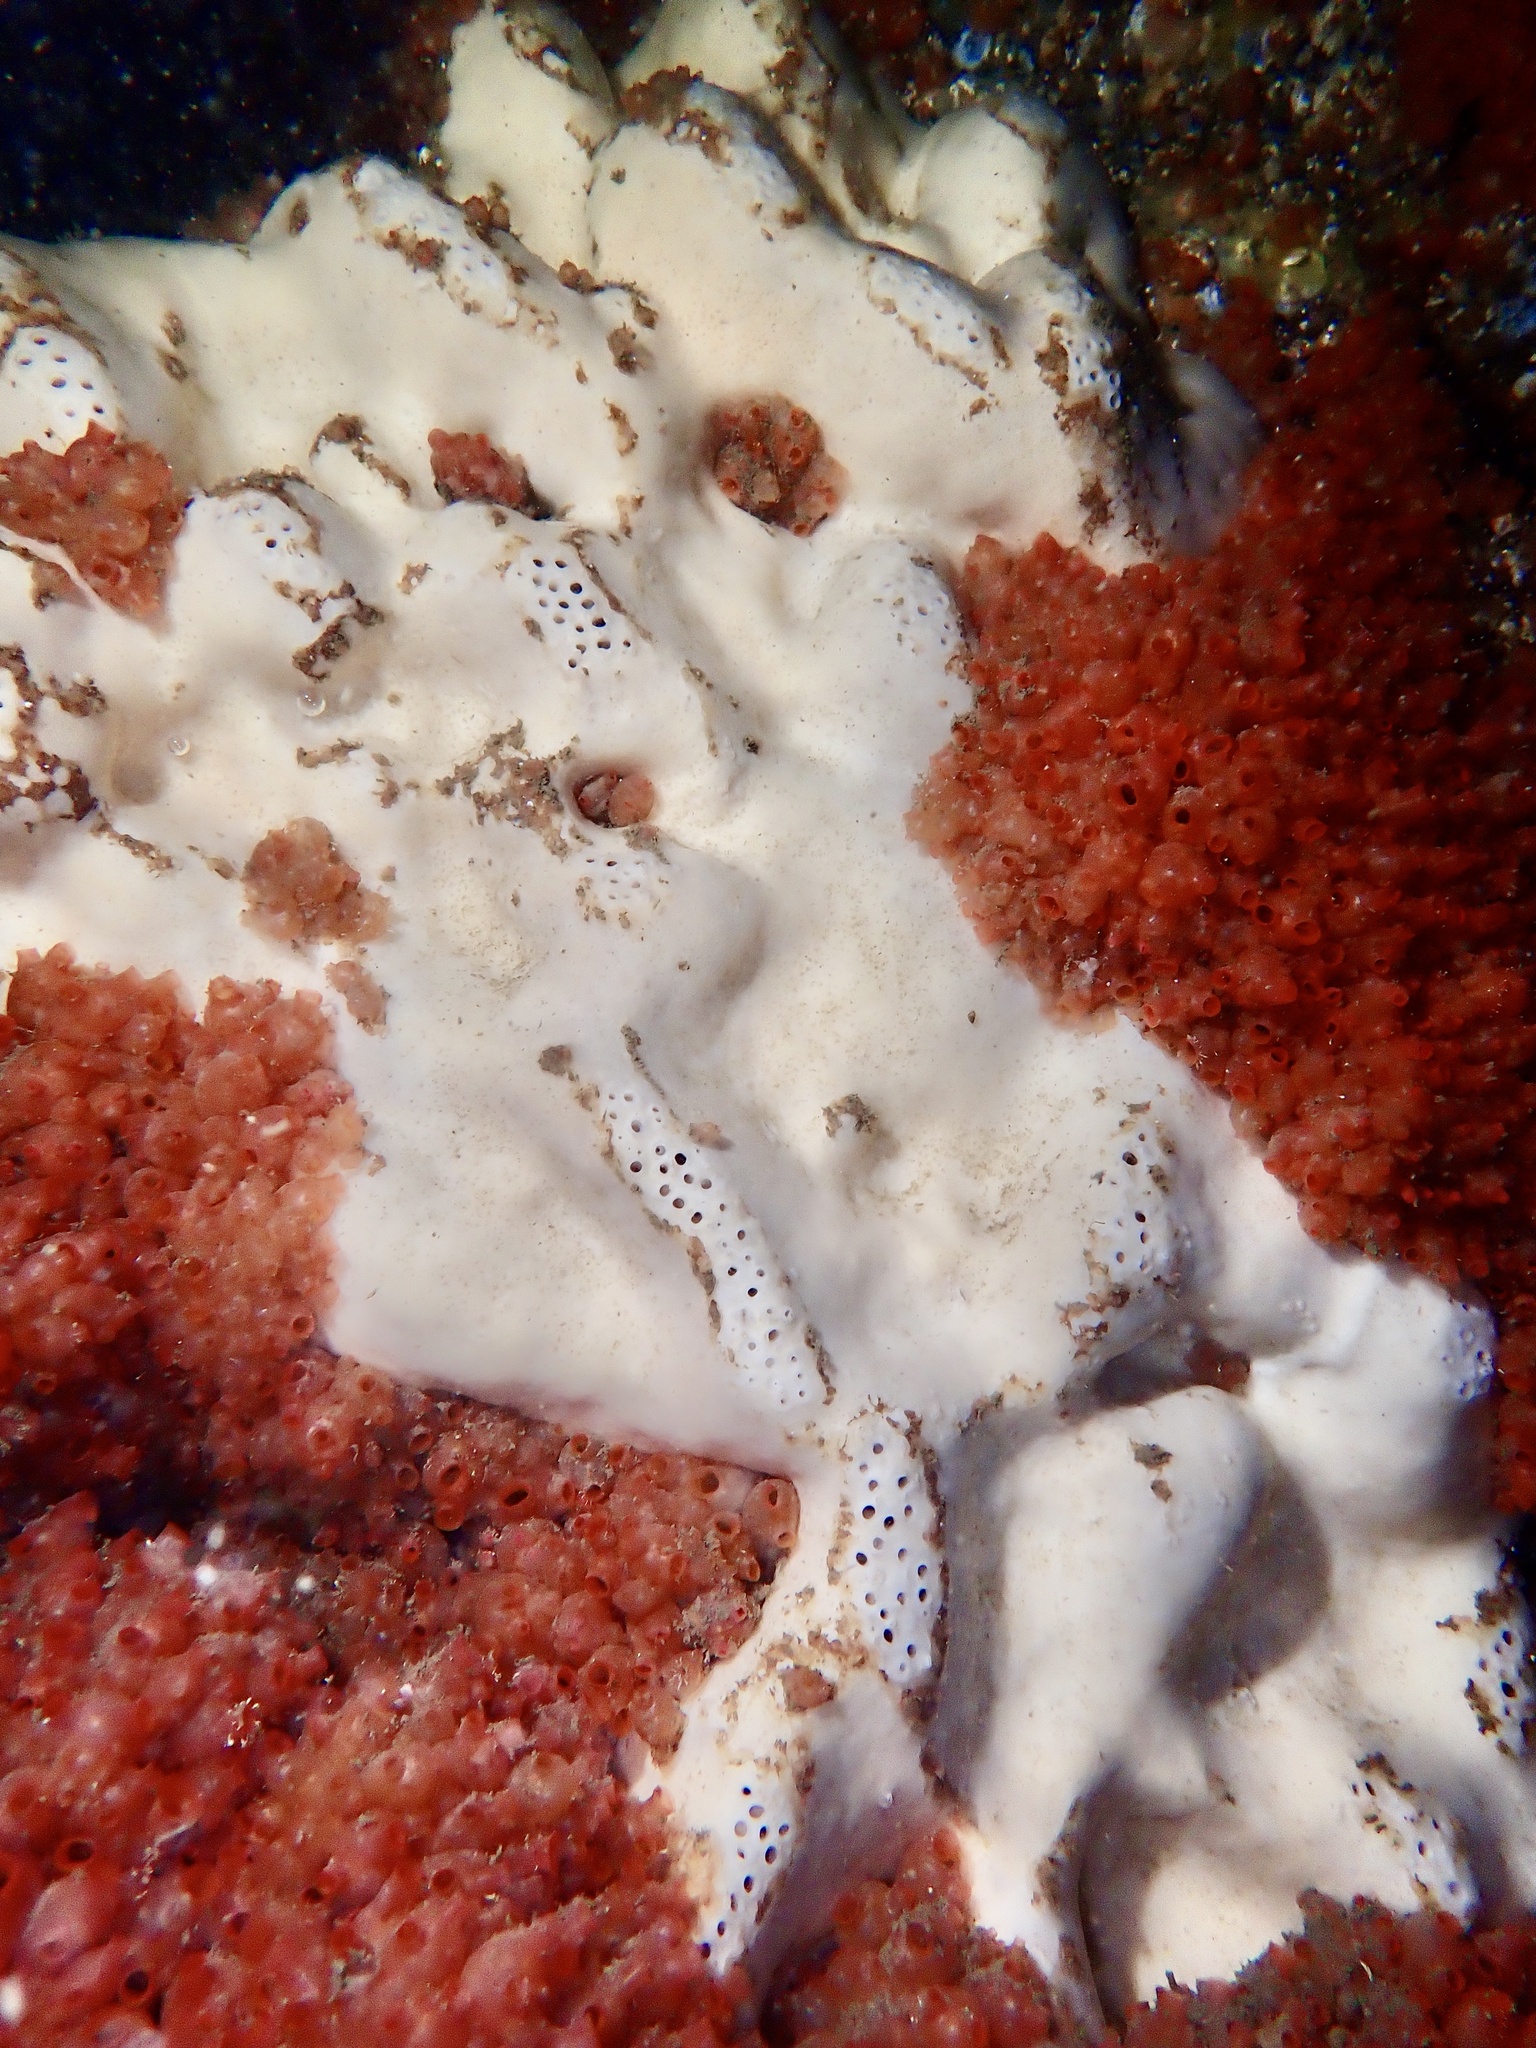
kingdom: Animalia
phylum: Porifera
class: Demospongiae
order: Tetractinellida
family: Geodiidae
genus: Pachymatisma
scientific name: Pachymatisma johnstonia
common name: Elephant ear sponge
